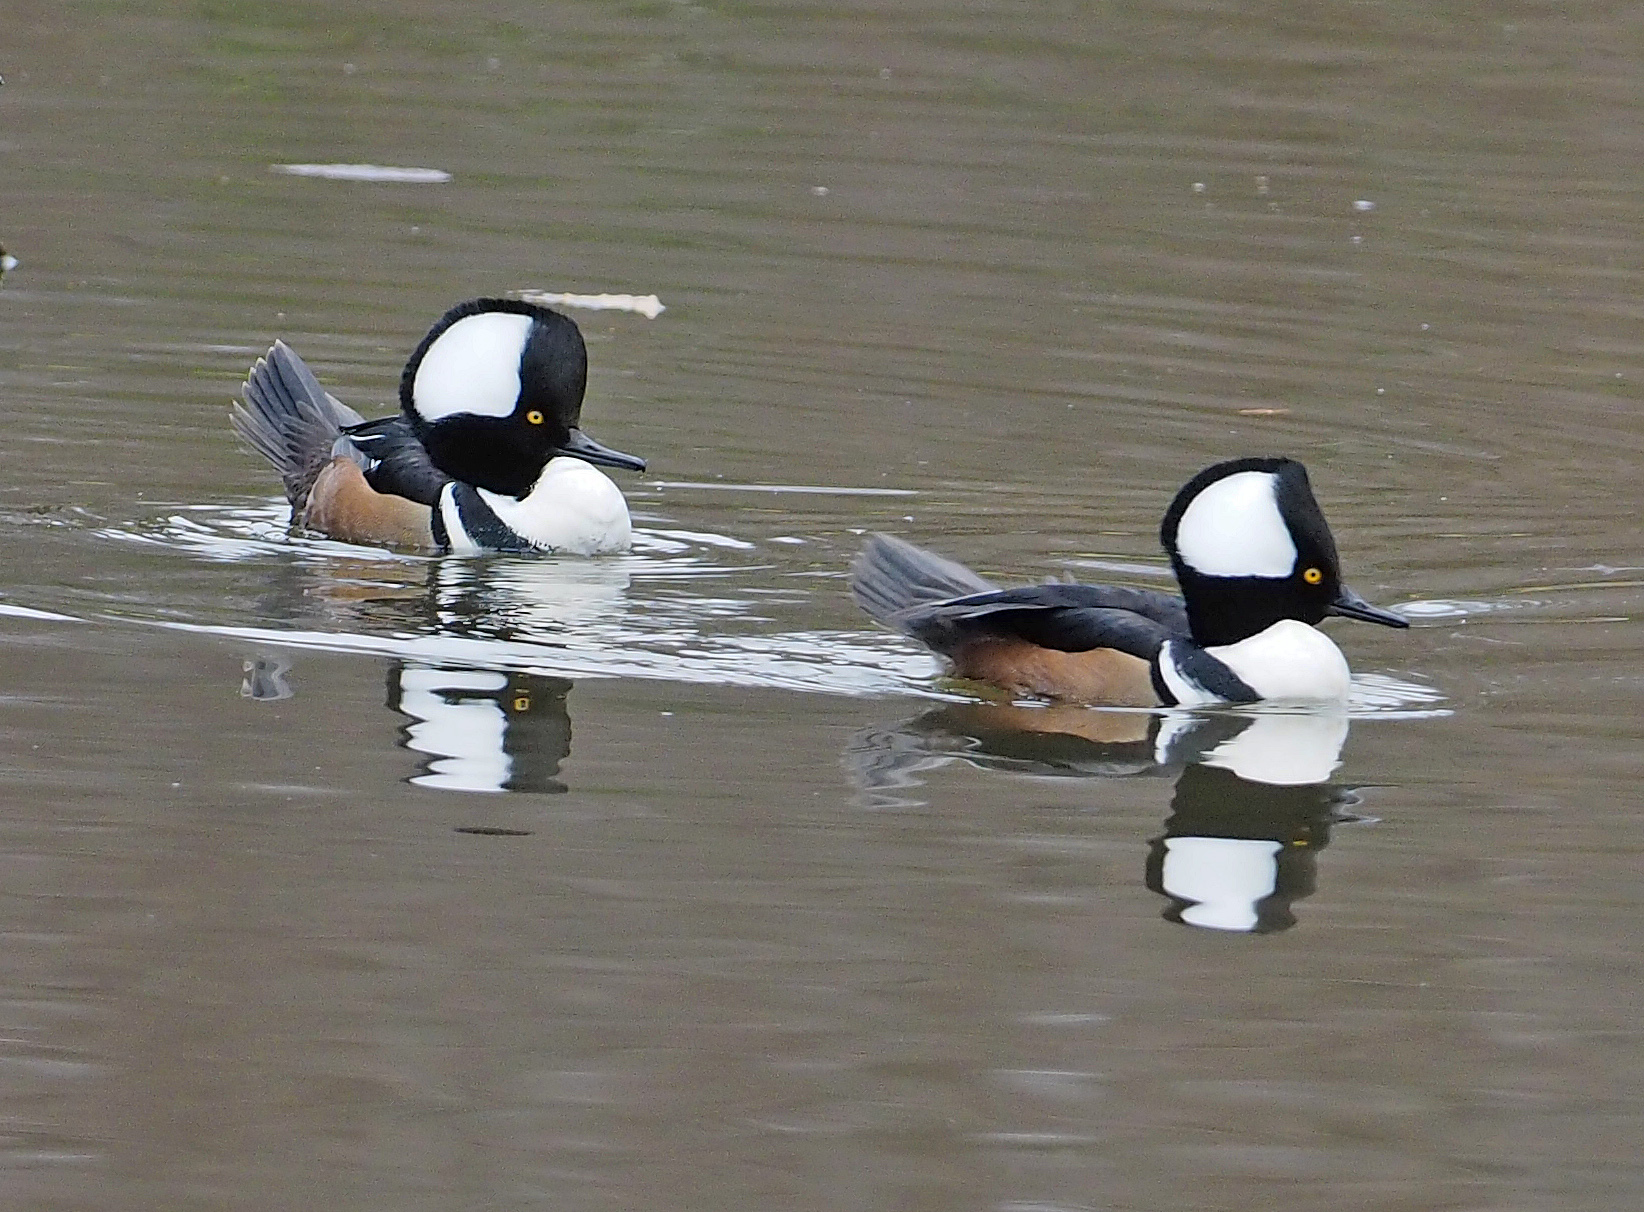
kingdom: Animalia
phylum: Chordata
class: Aves
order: Anseriformes
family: Anatidae
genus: Lophodytes
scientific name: Lophodytes cucullatus
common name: Hooded merganser
